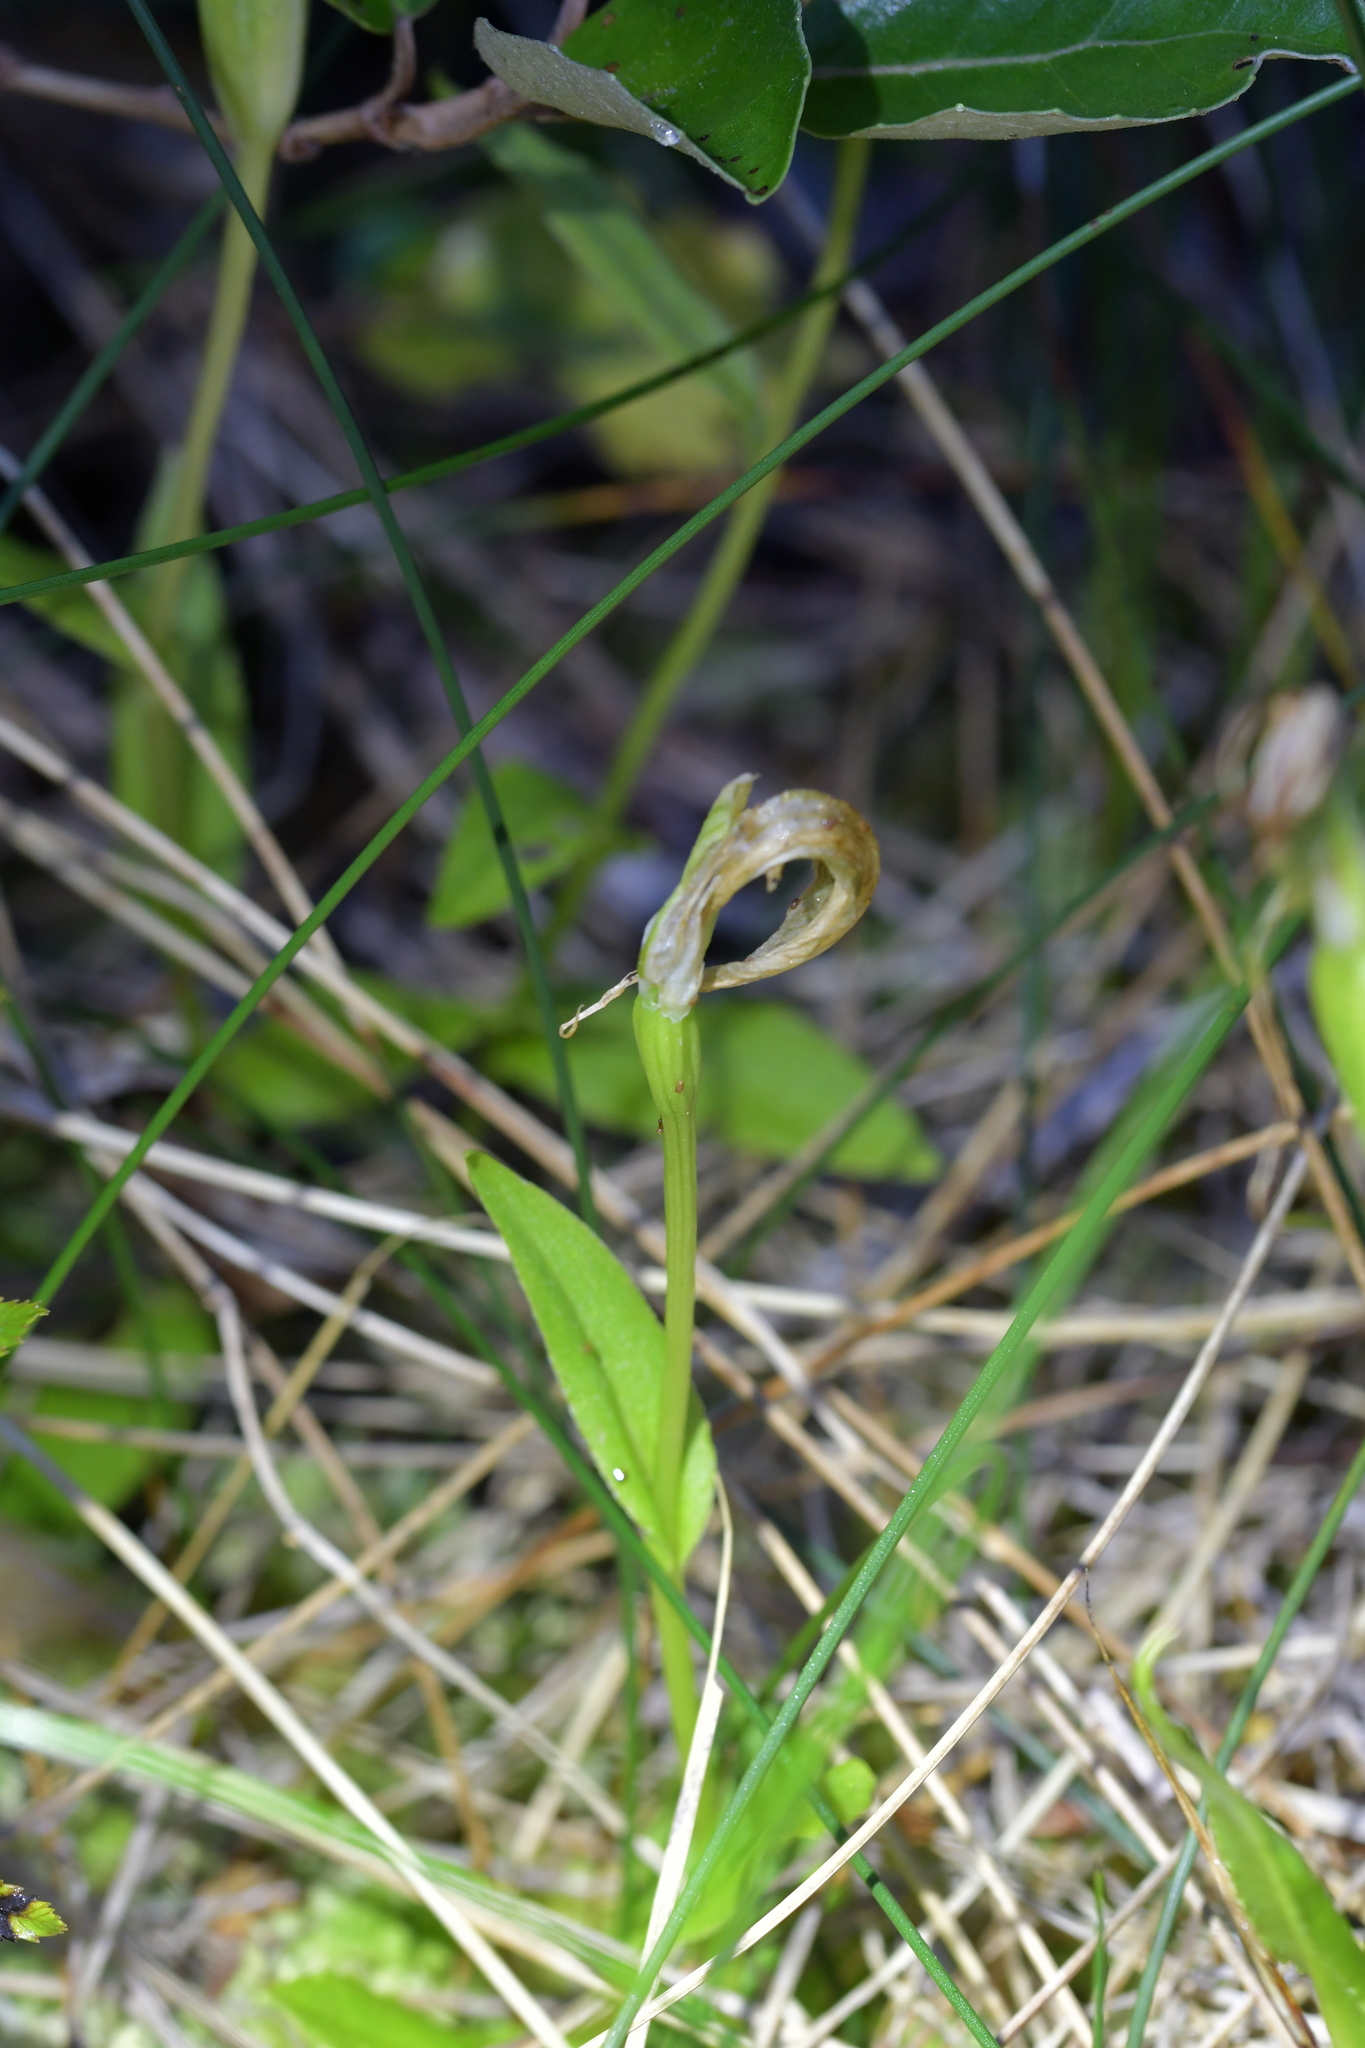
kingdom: Plantae
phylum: Tracheophyta
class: Liliopsida
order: Asparagales
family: Orchidaceae
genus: Pterostylis
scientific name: Pterostylis oliveri
